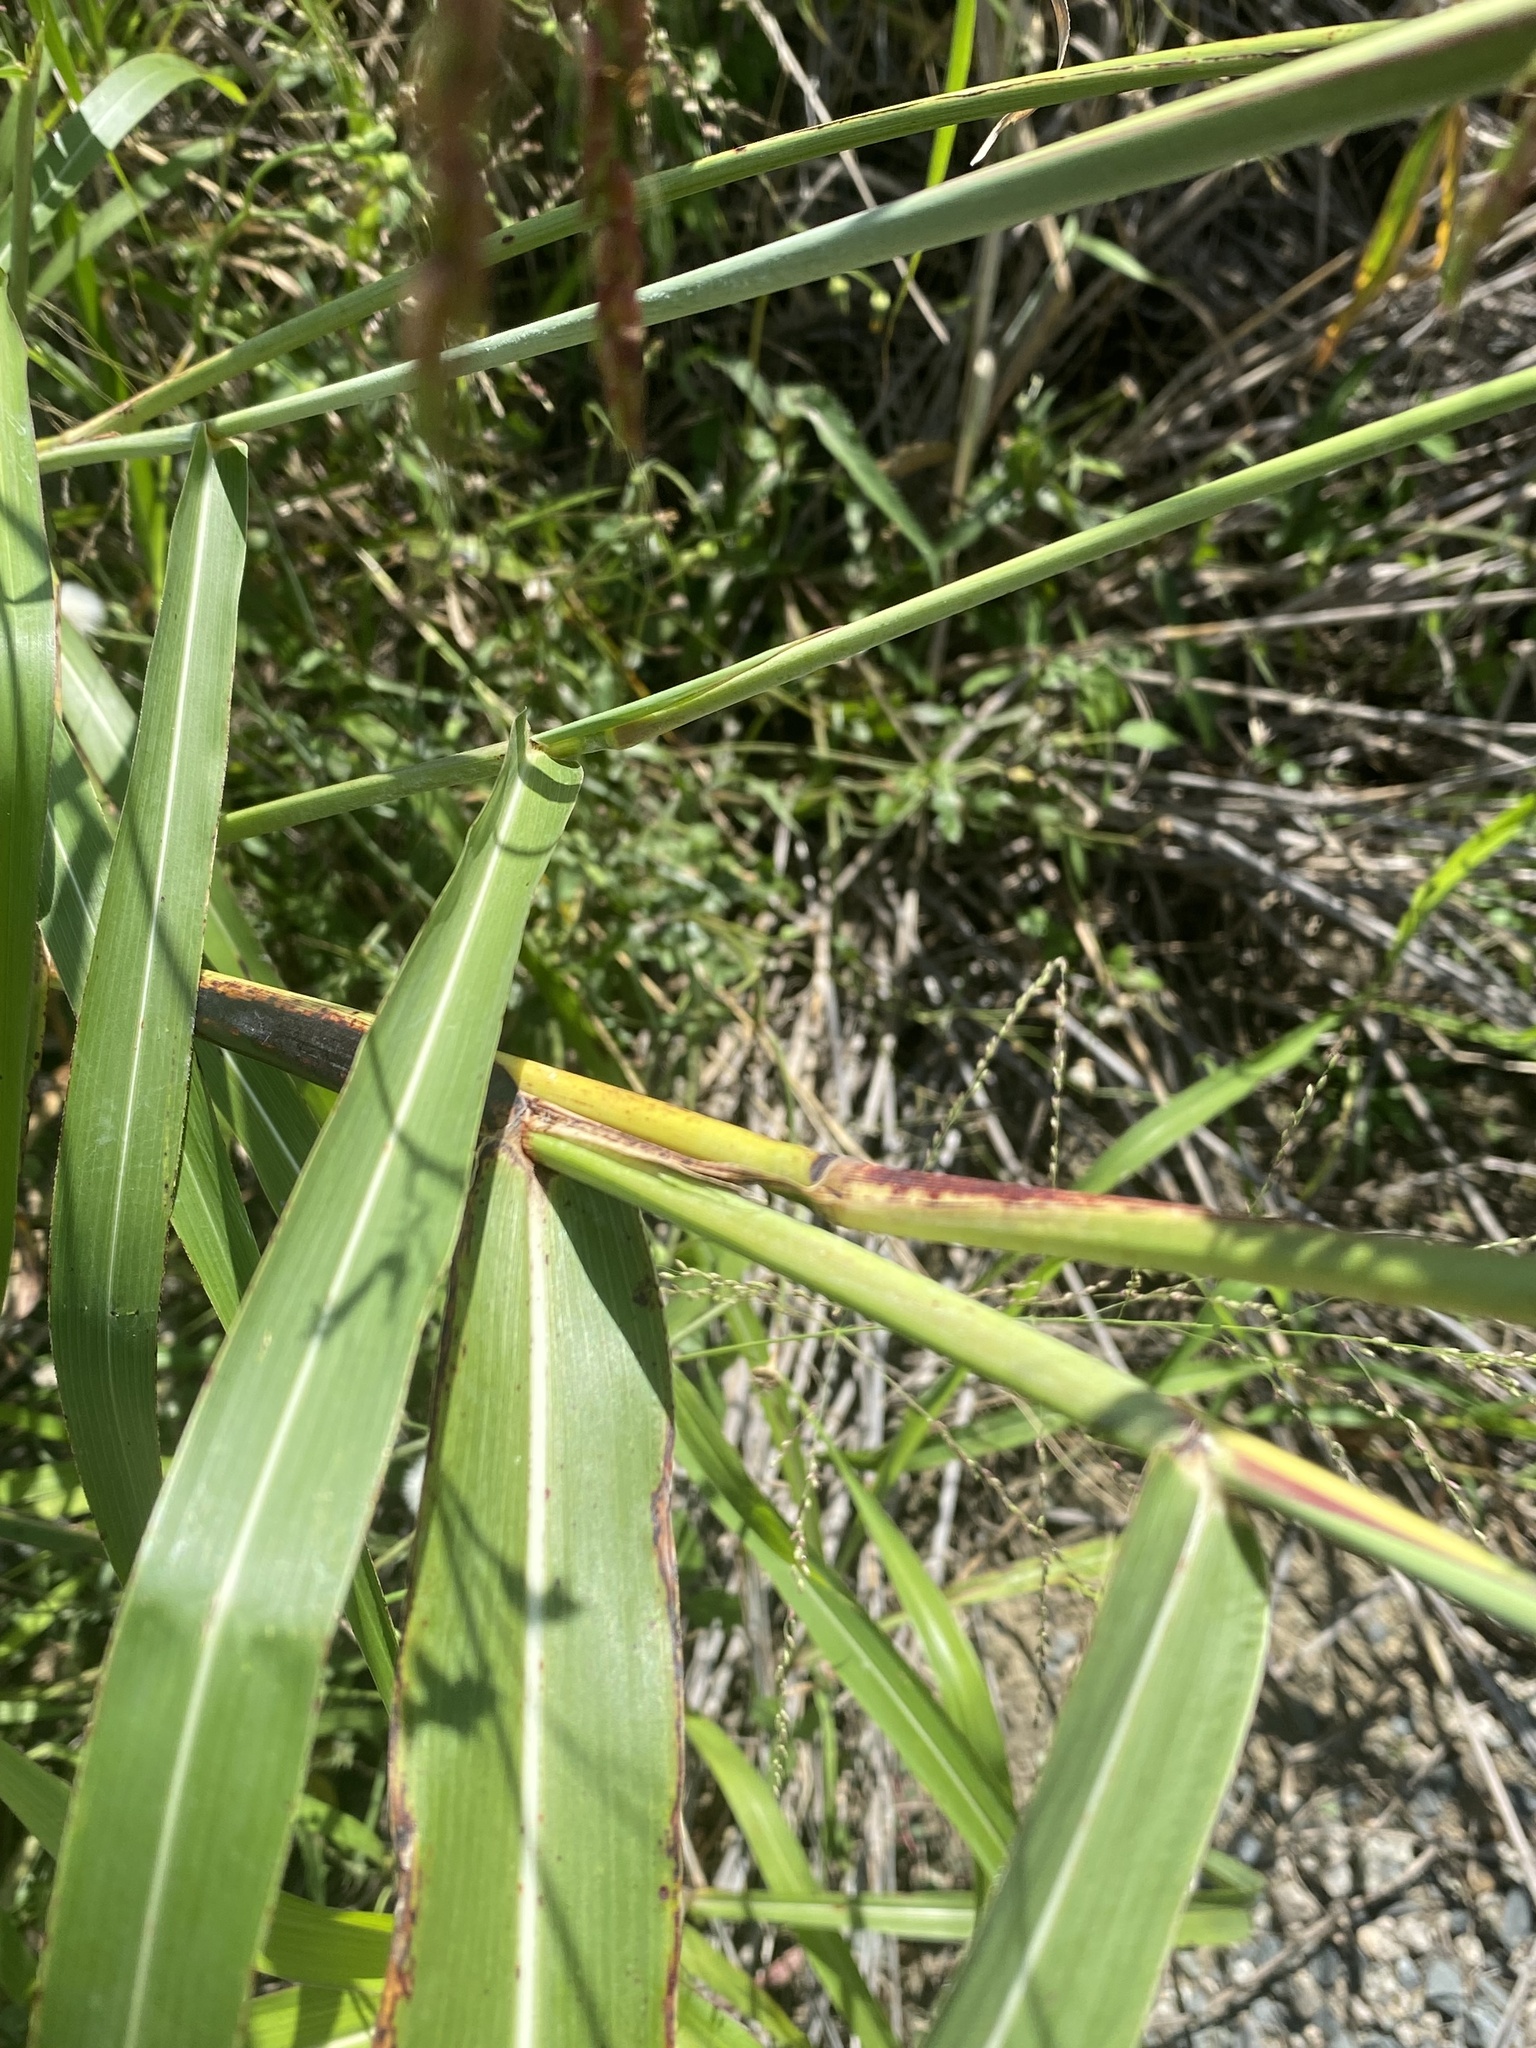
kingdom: Plantae
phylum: Tracheophyta
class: Liliopsida
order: Poales
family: Poaceae
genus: Sorghum
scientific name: Sorghum halepense
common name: Johnson-grass
